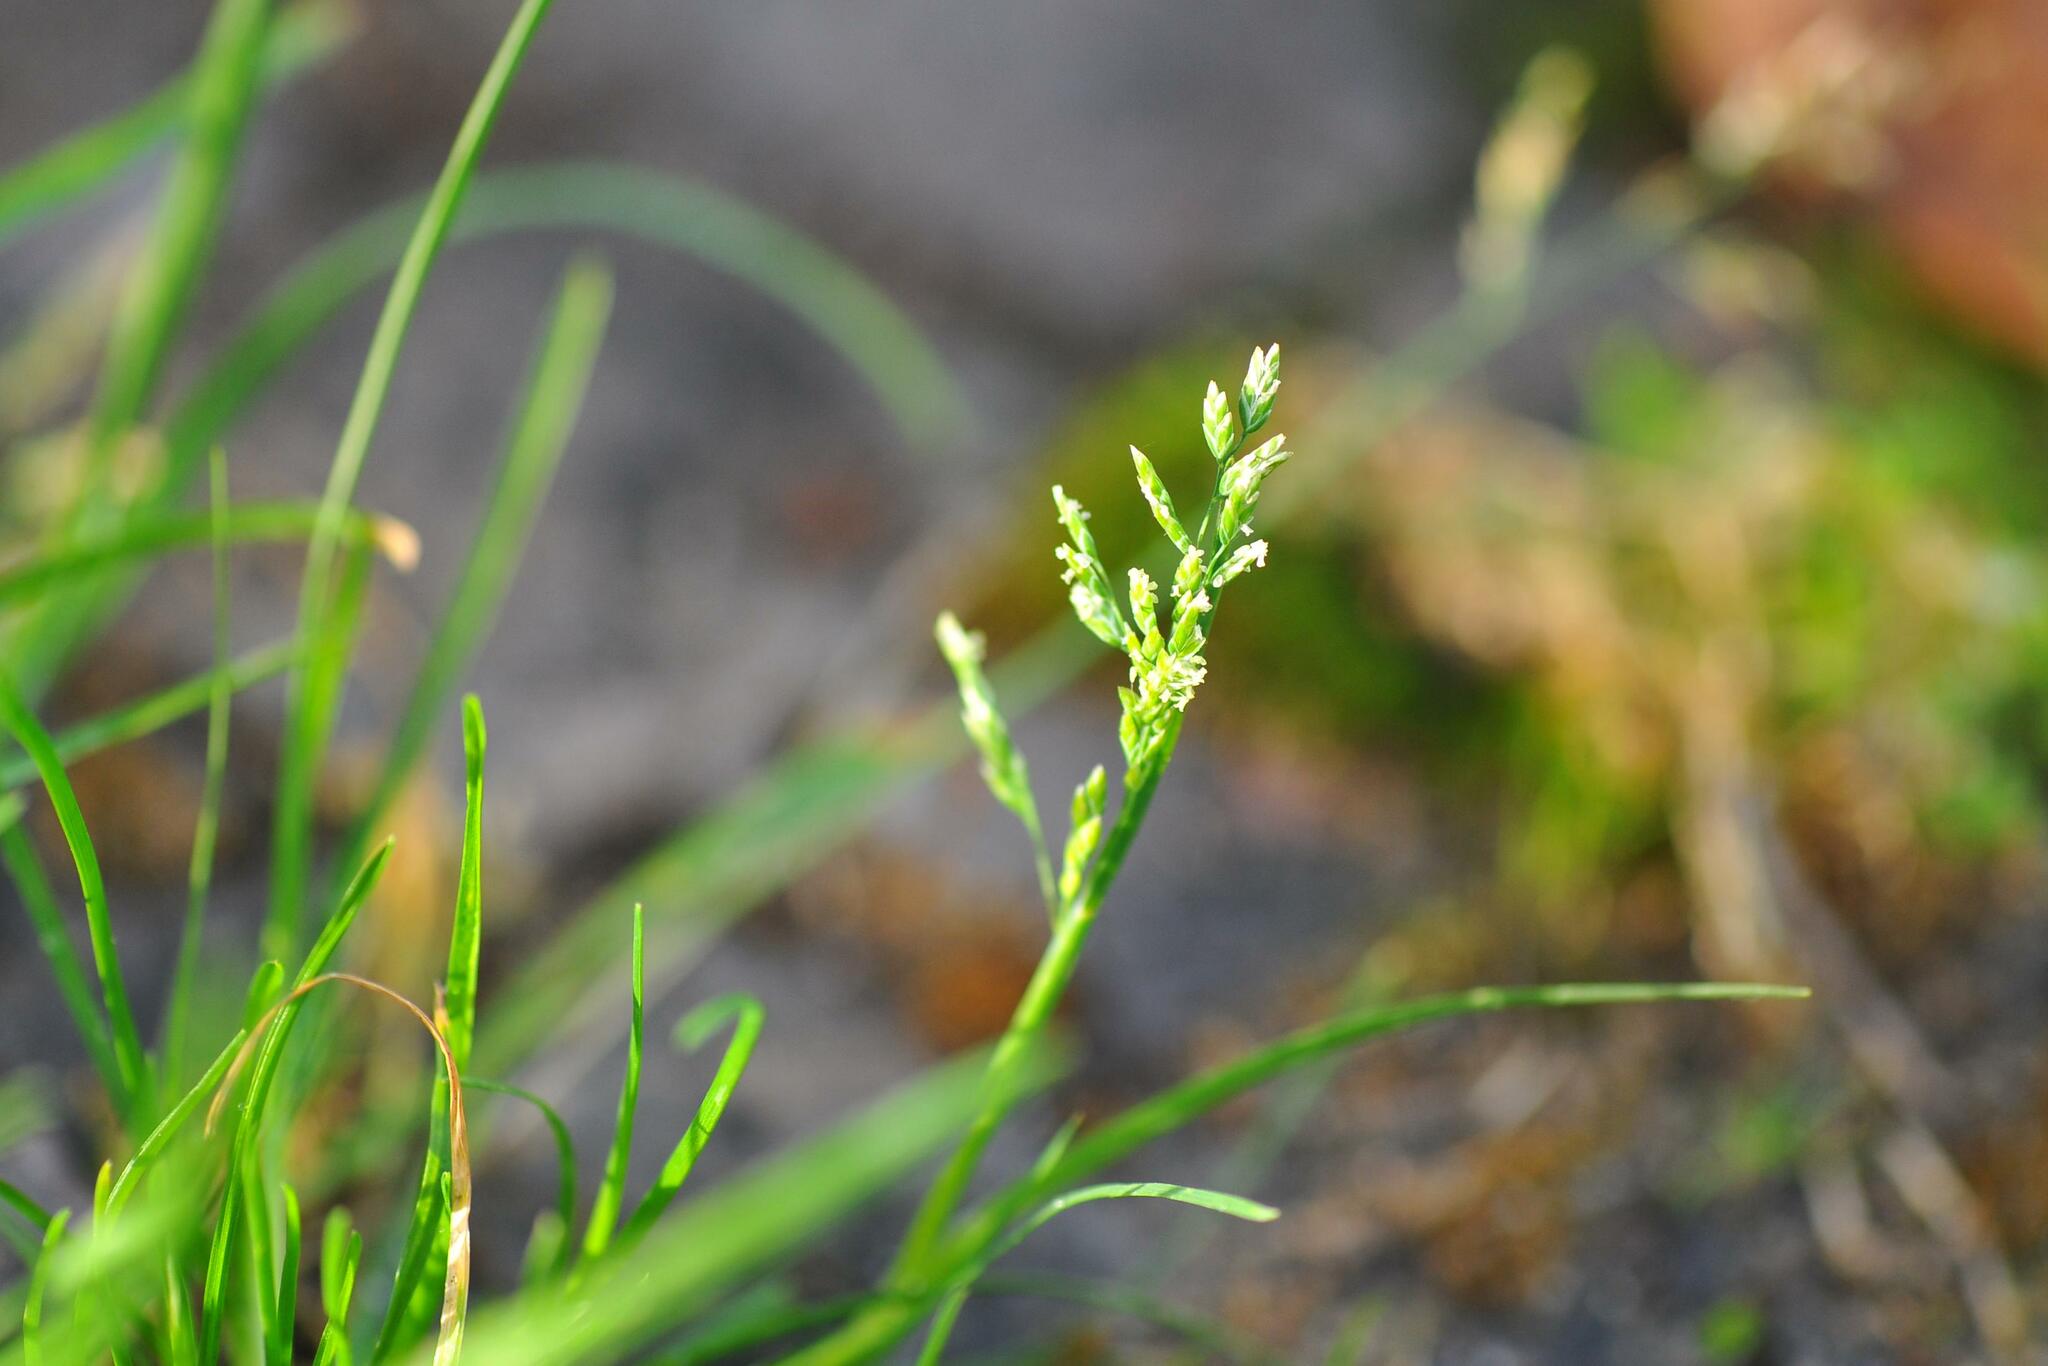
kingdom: Plantae
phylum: Tracheophyta
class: Liliopsida
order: Poales
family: Poaceae
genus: Poa
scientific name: Poa annua
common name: Annual bluegrass
